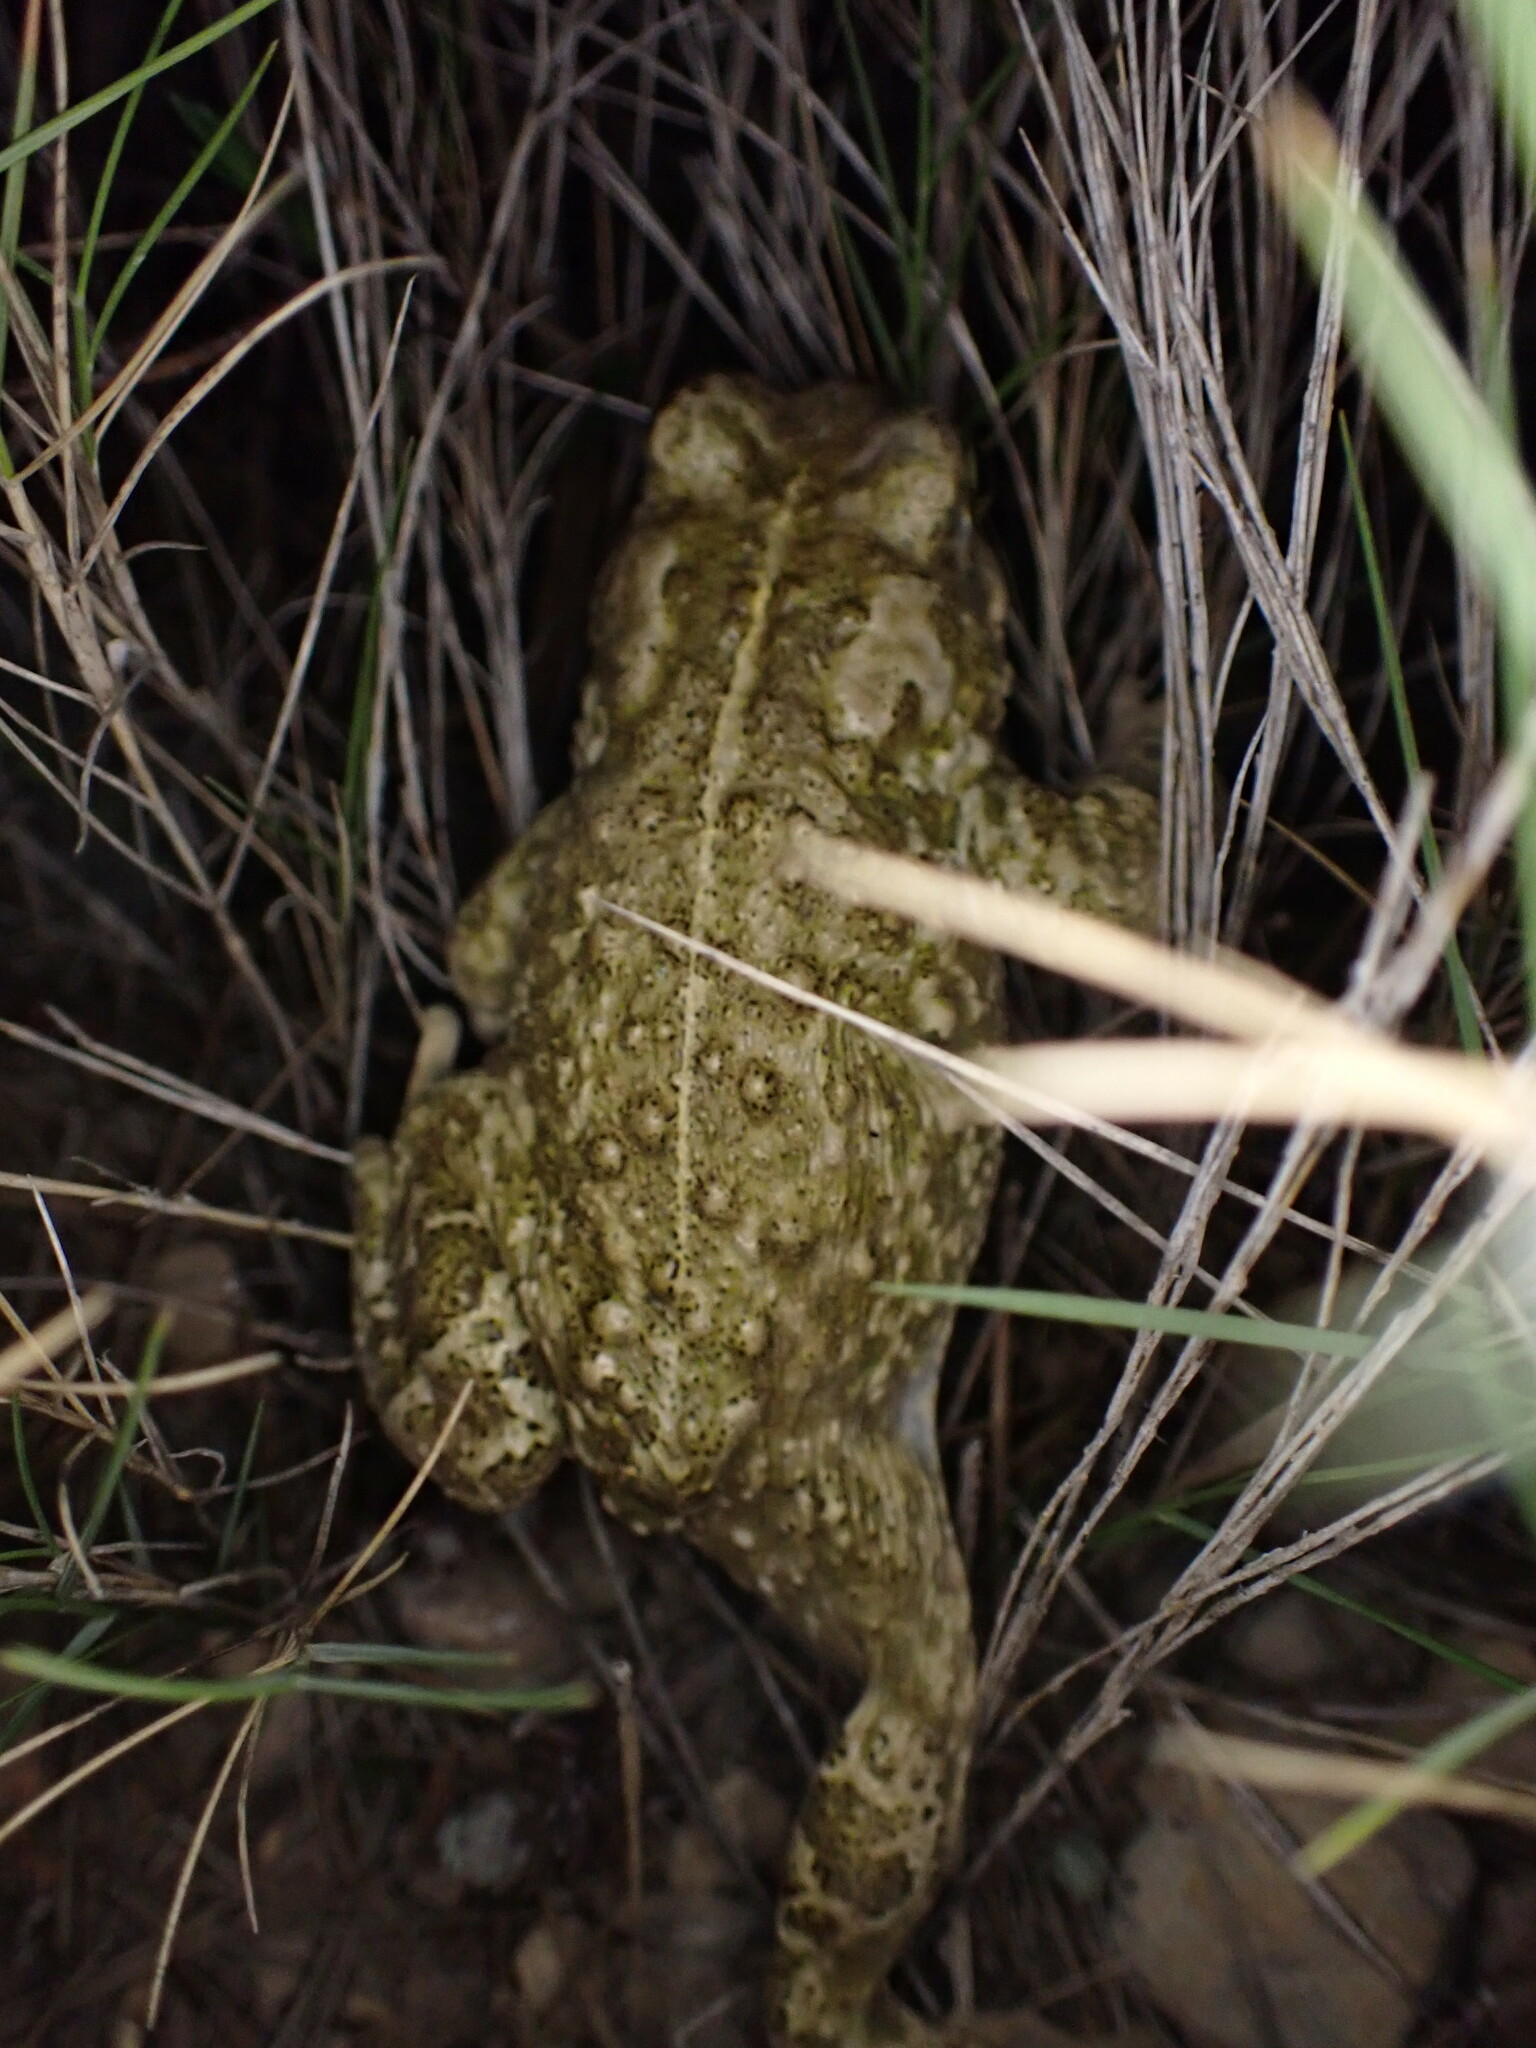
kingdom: Animalia
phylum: Chordata
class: Amphibia
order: Anura
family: Bufonidae
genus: Epidalea
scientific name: Epidalea calamita
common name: Natterjack toad
